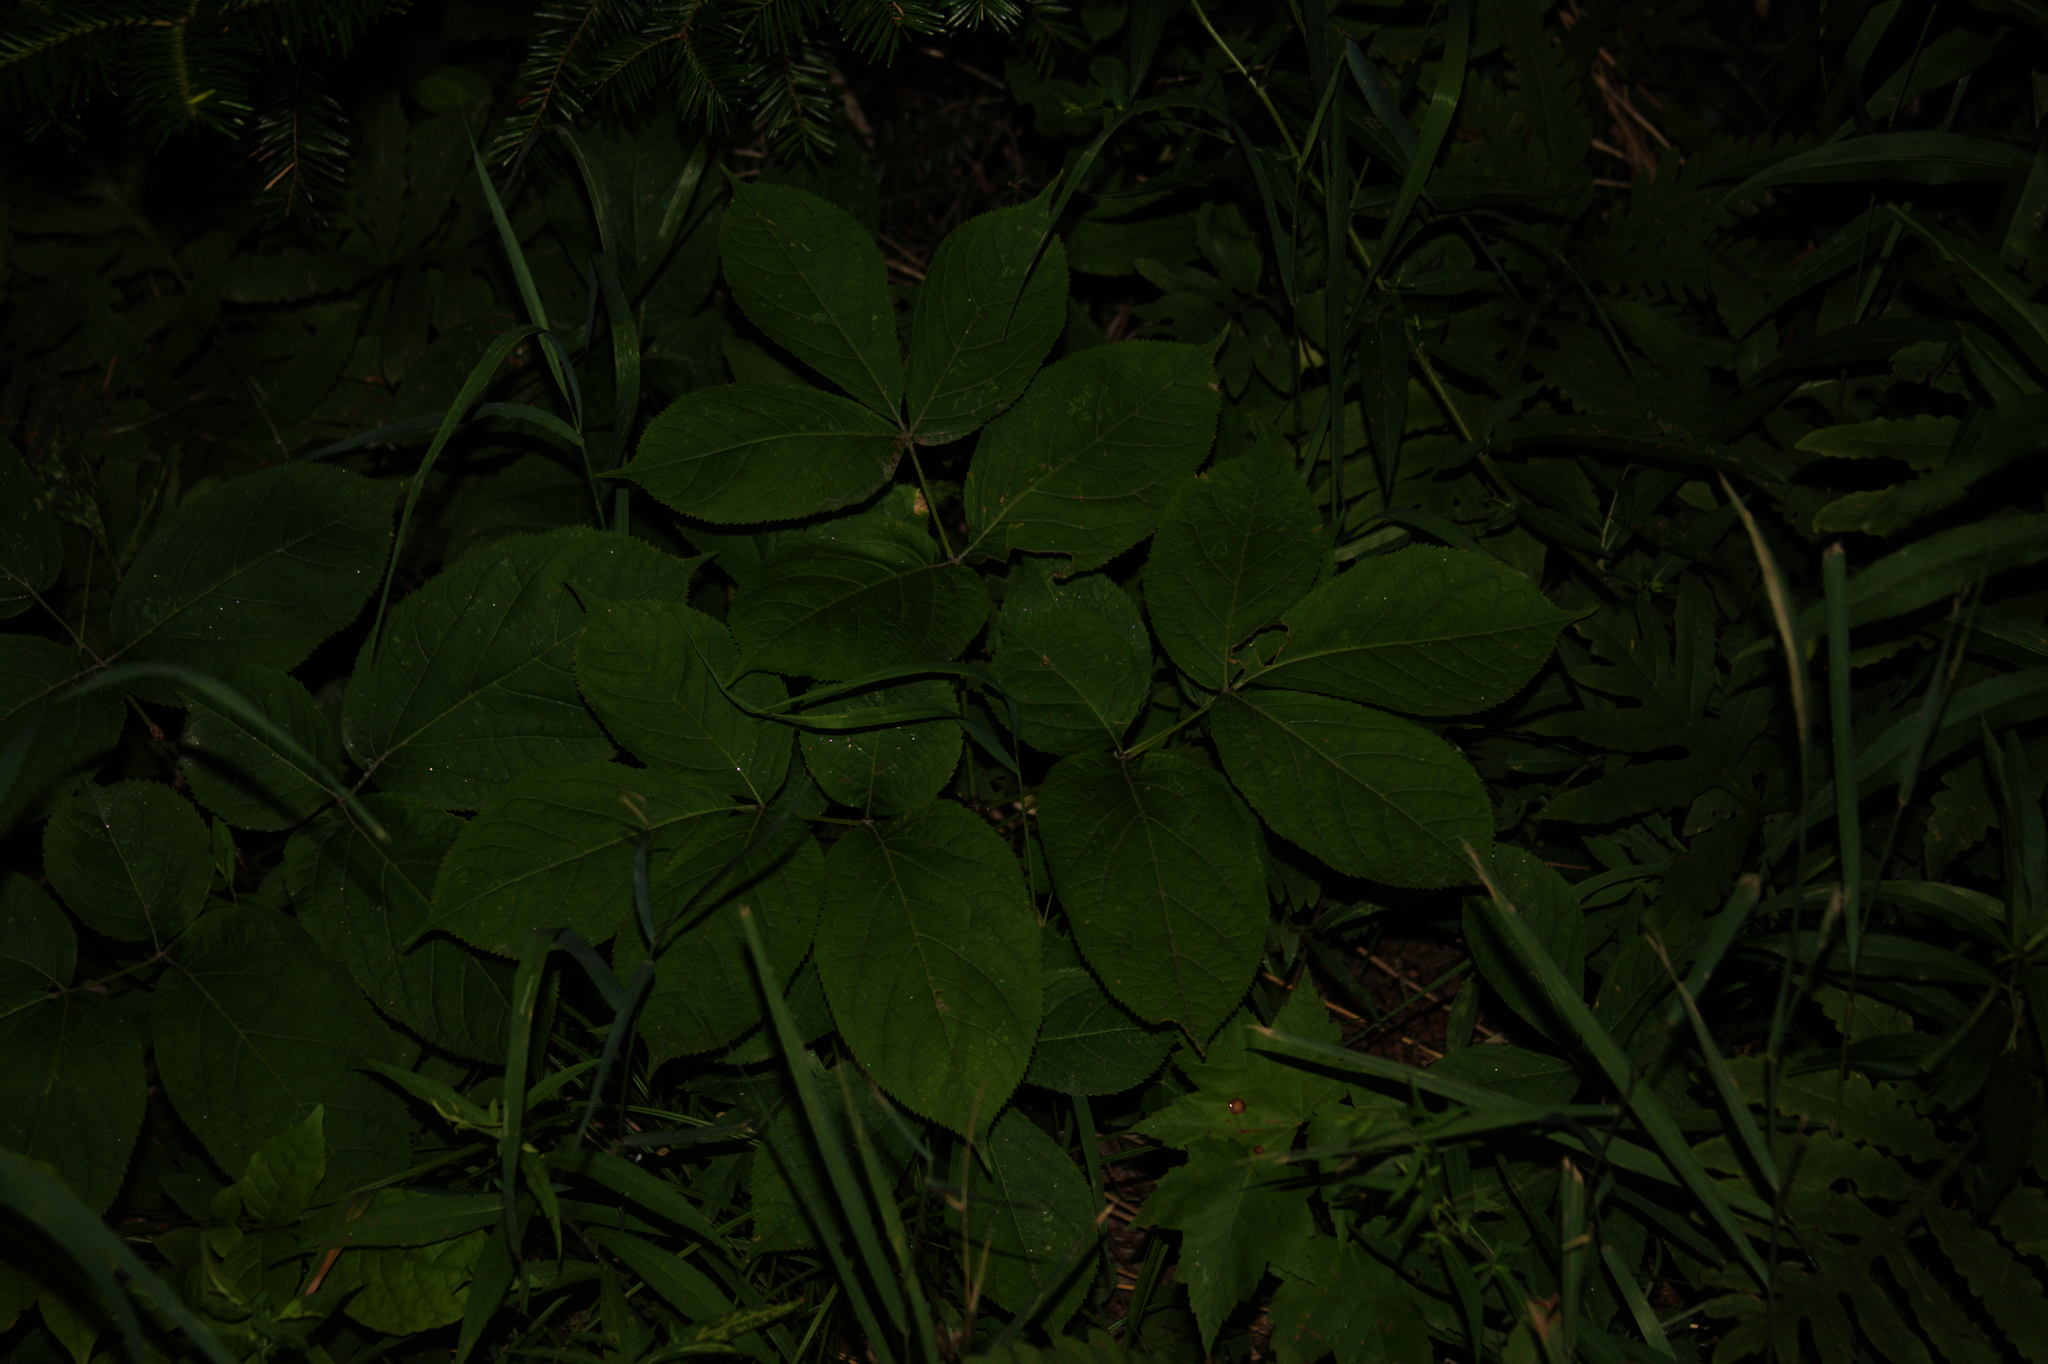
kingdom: Plantae
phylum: Tracheophyta
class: Magnoliopsida
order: Apiales
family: Araliaceae
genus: Aralia
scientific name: Aralia nudicaulis
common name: Wild sarsaparilla
